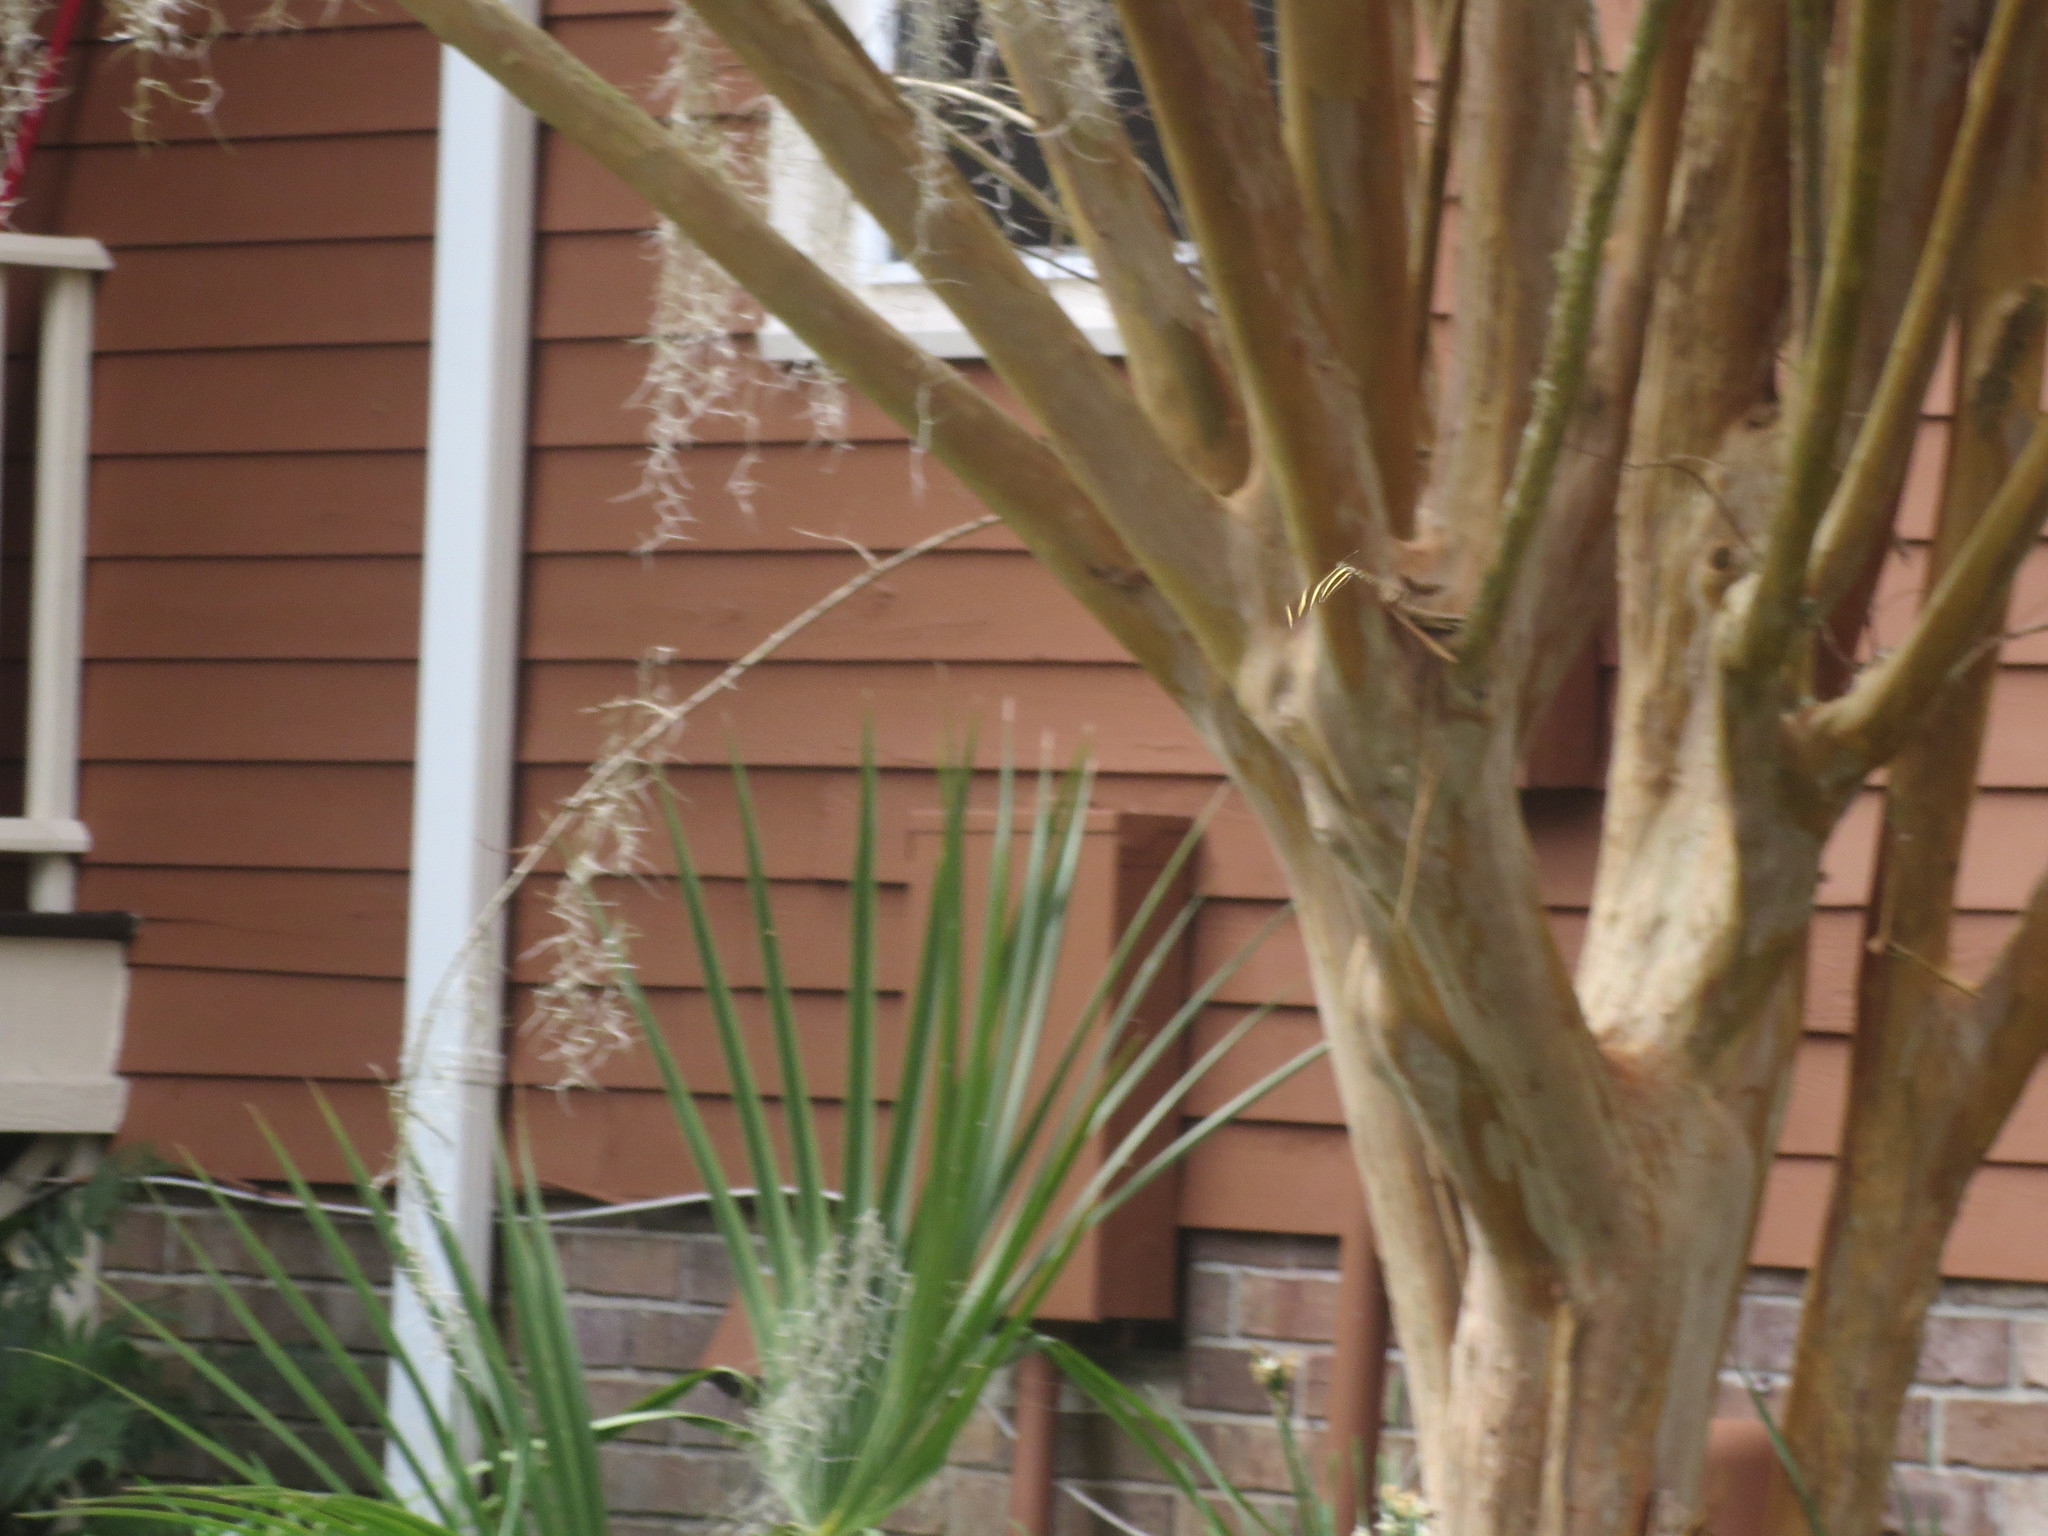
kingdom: Animalia
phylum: Arthropoda
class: Insecta
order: Lepidoptera
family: Nymphalidae
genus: Heliconius
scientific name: Heliconius charithonia
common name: Zebra long wing
